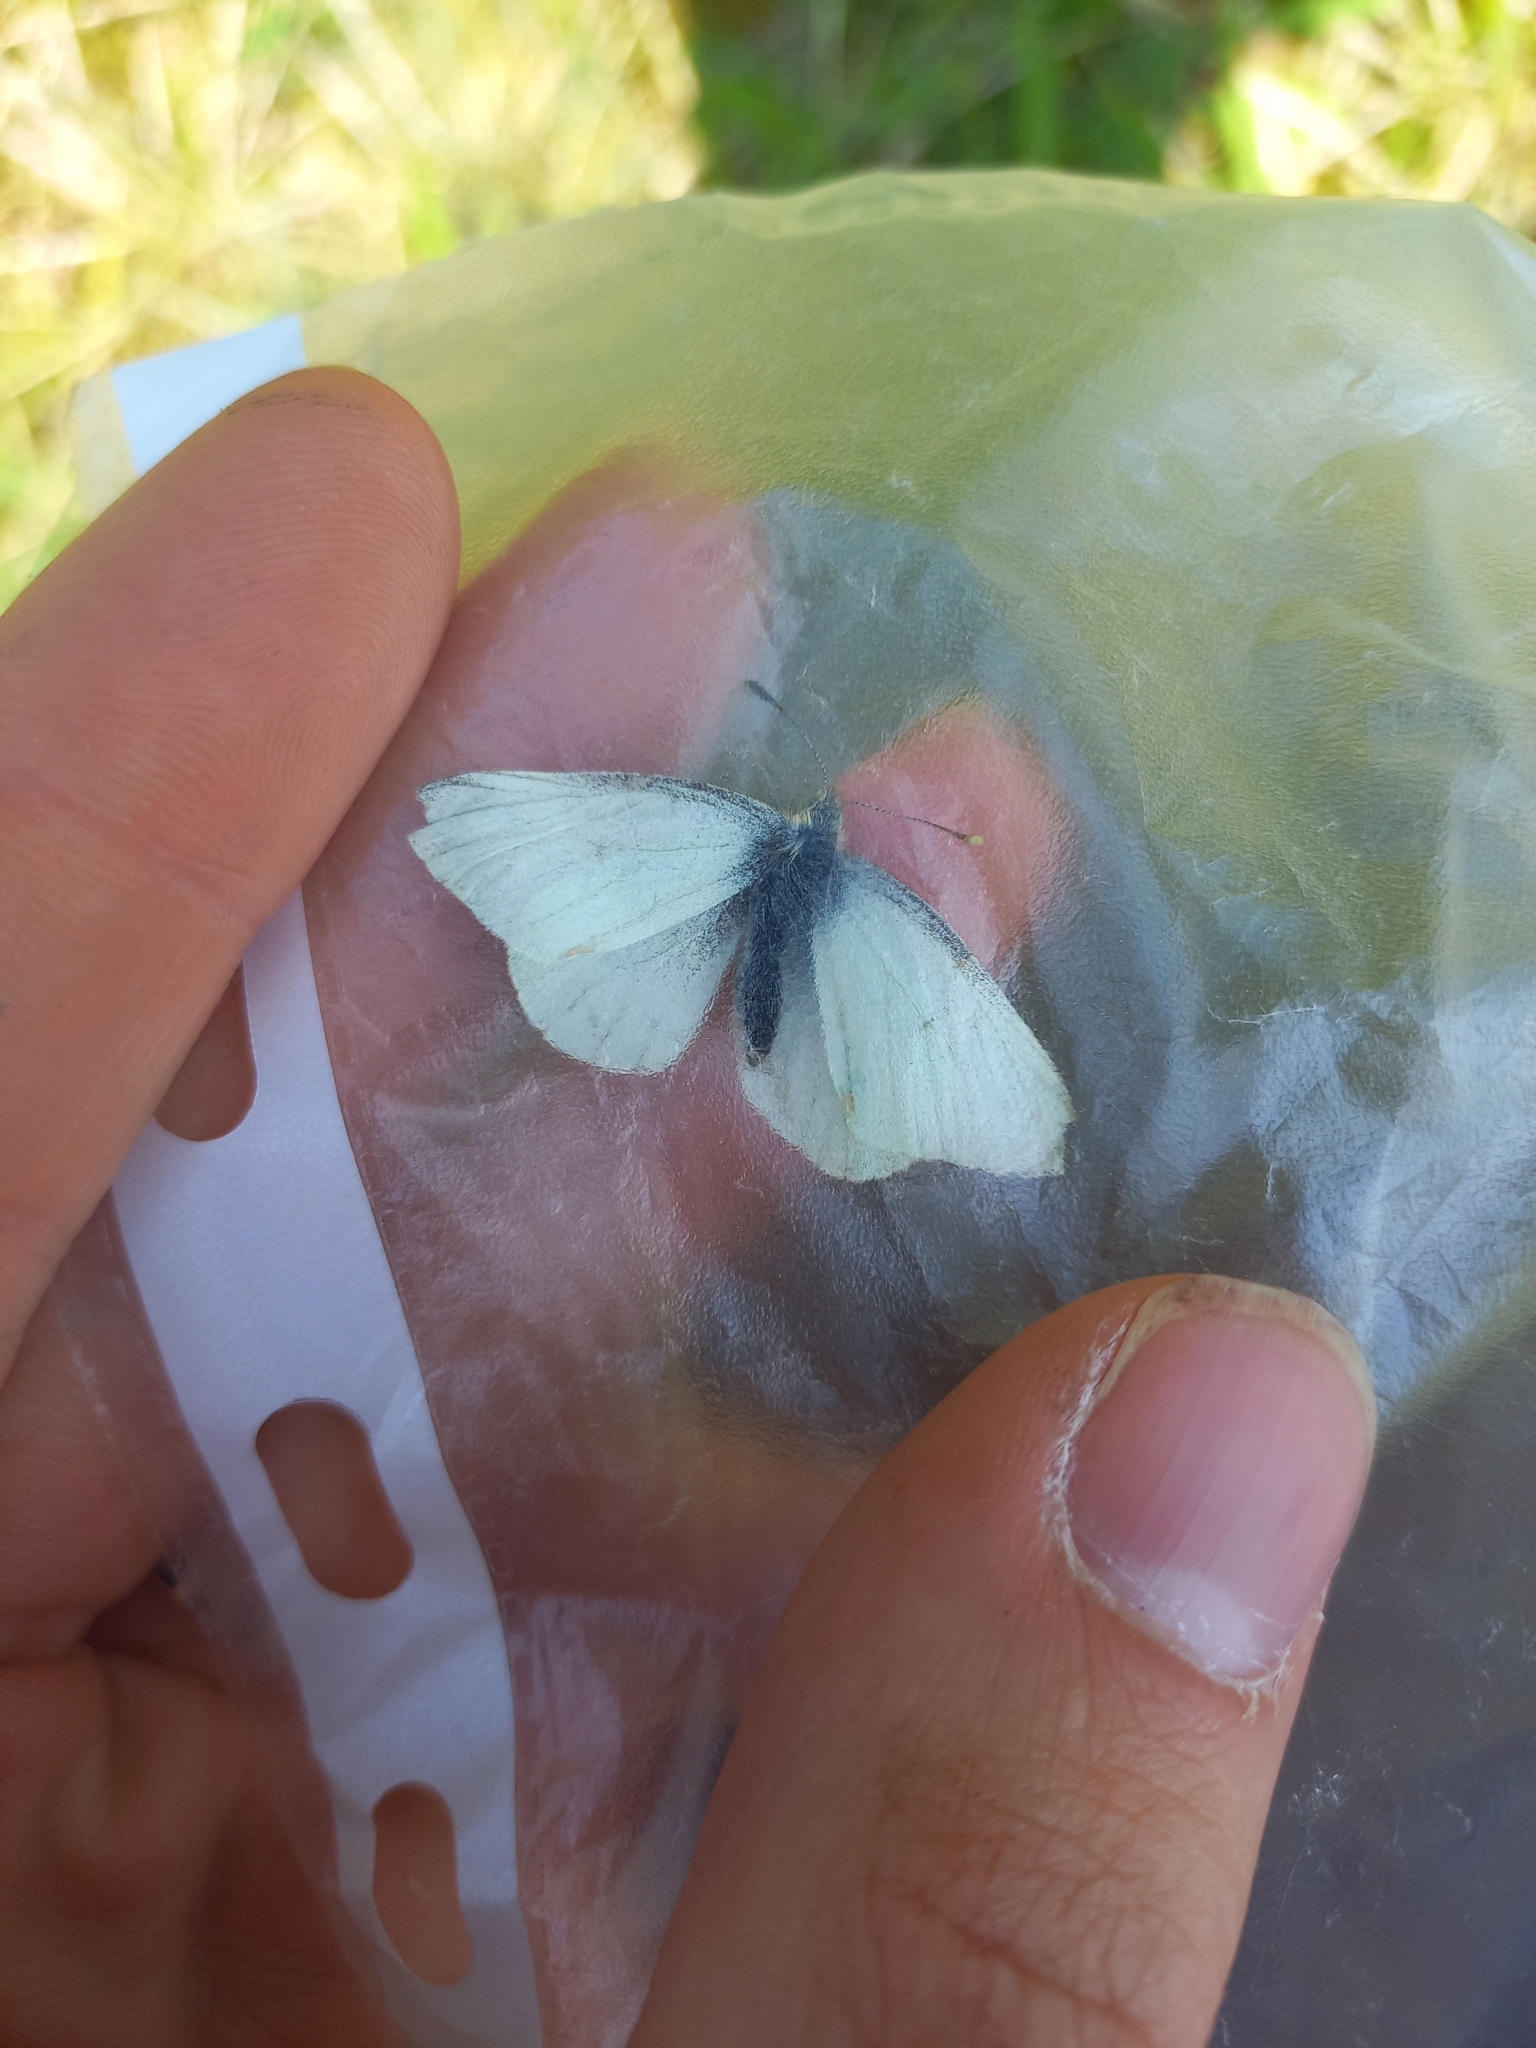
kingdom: Animalia
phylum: Arthropoda
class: Insecta
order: Lepidoptera
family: Pieridae
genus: Pieris
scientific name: Pieris rapae
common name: Small white
